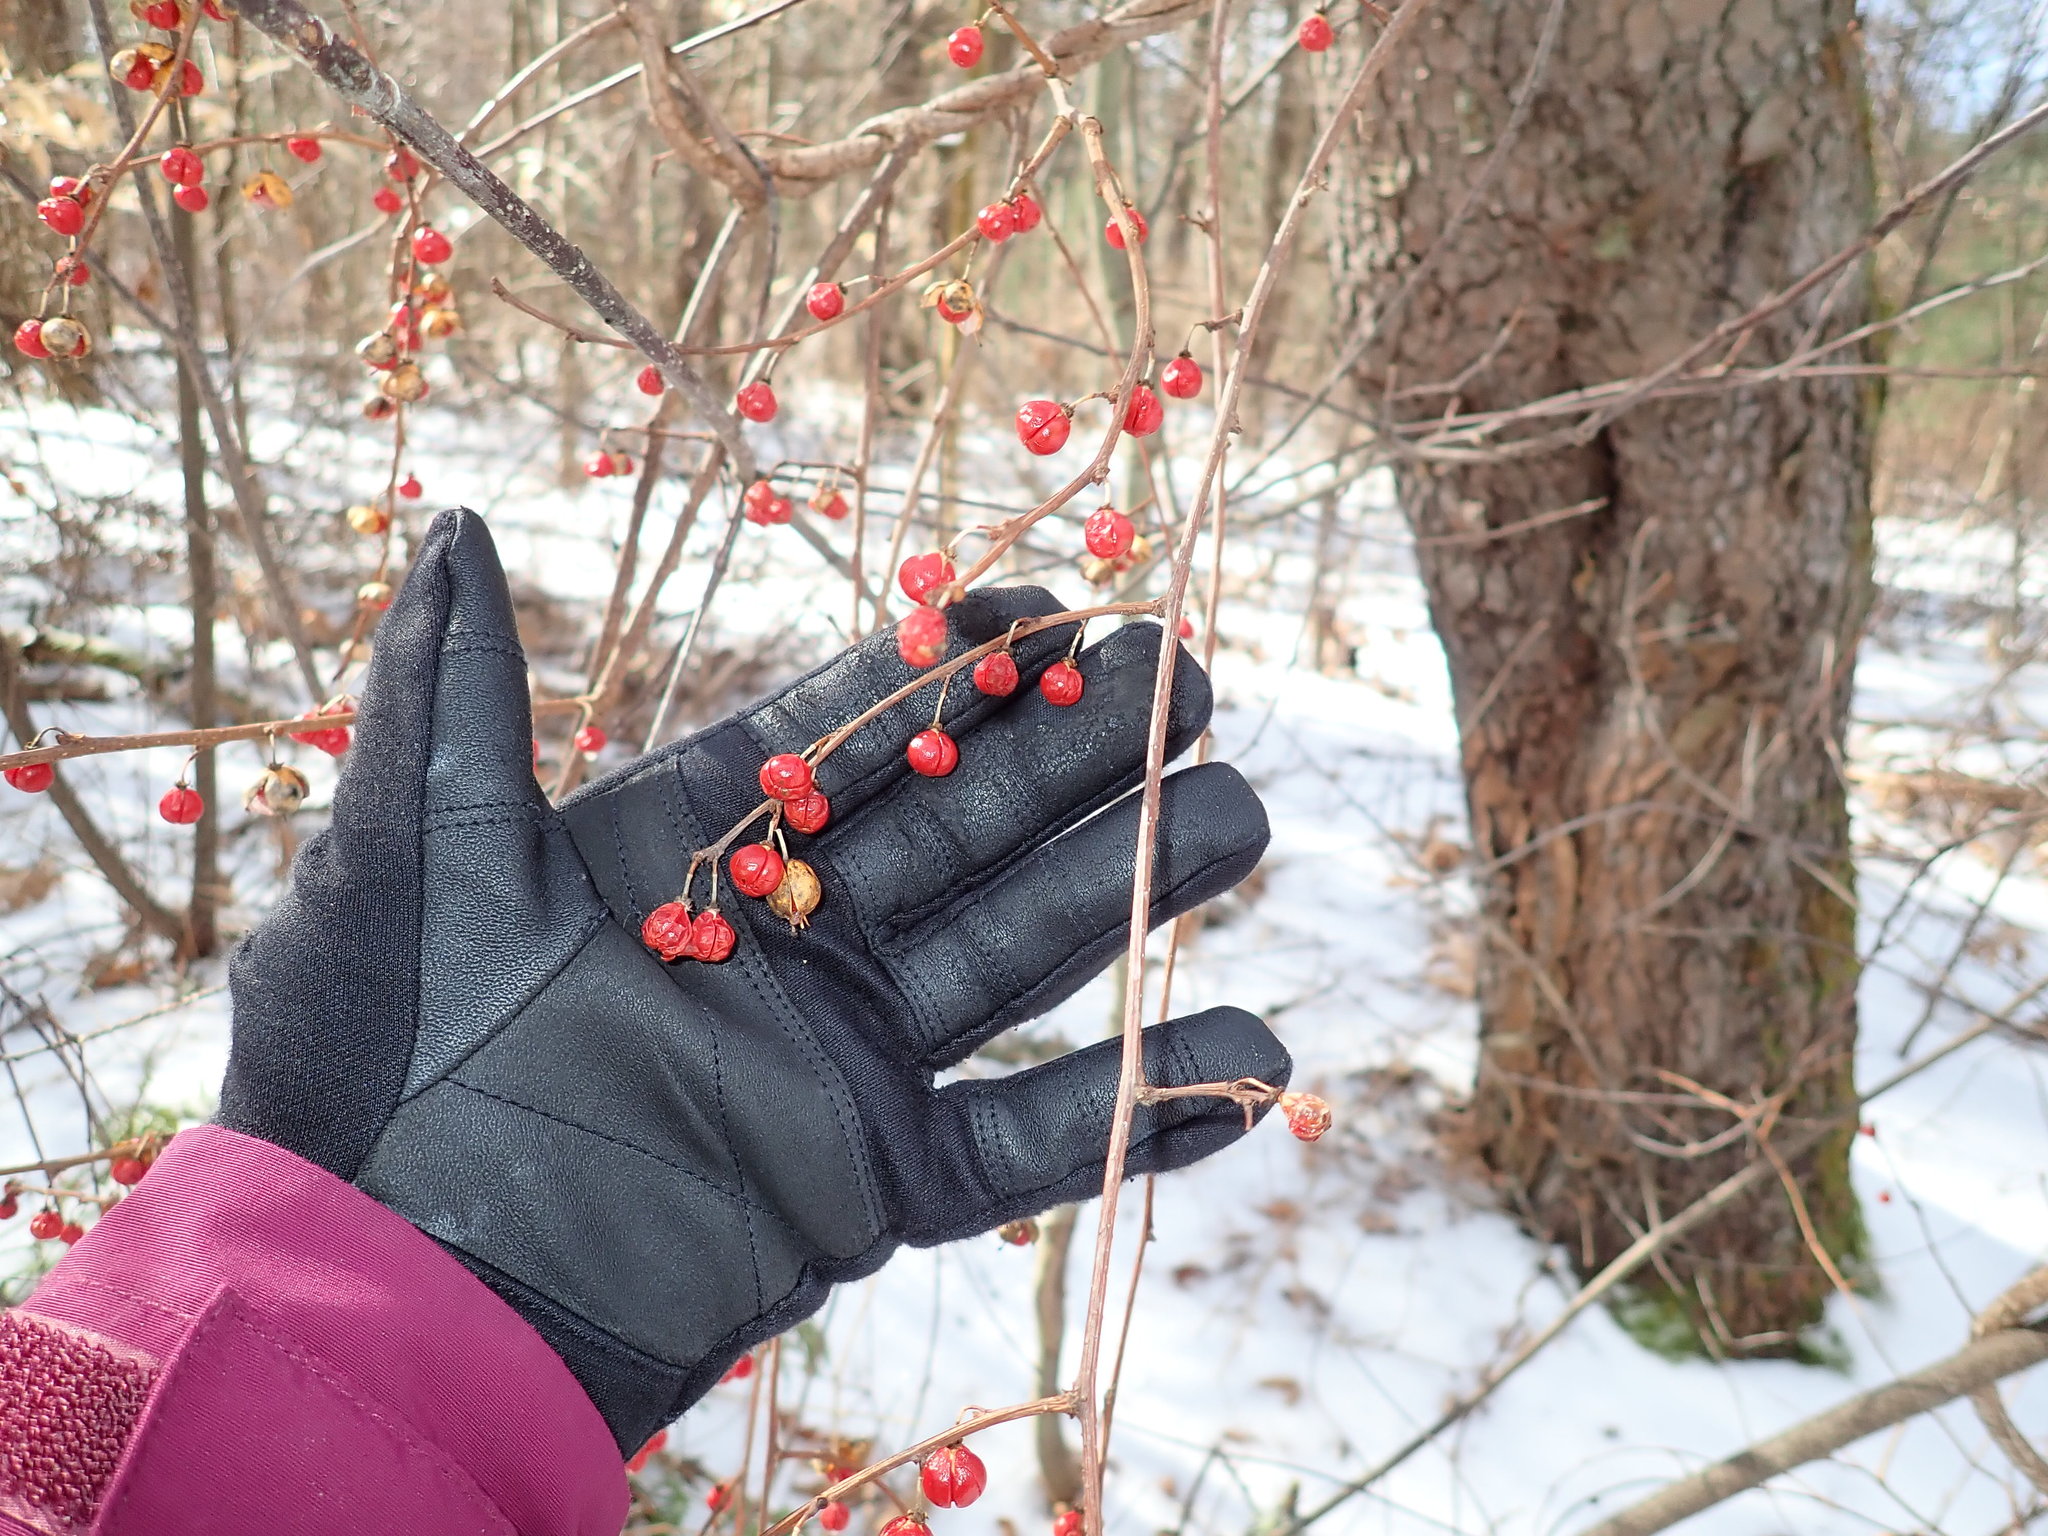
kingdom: Plantae
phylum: Tracheophyta
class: Magnoliopsida
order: Celastrales
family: Celastraceae
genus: Celastrus
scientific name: Celastrus orbiculatus
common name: Oriental bittersweet
